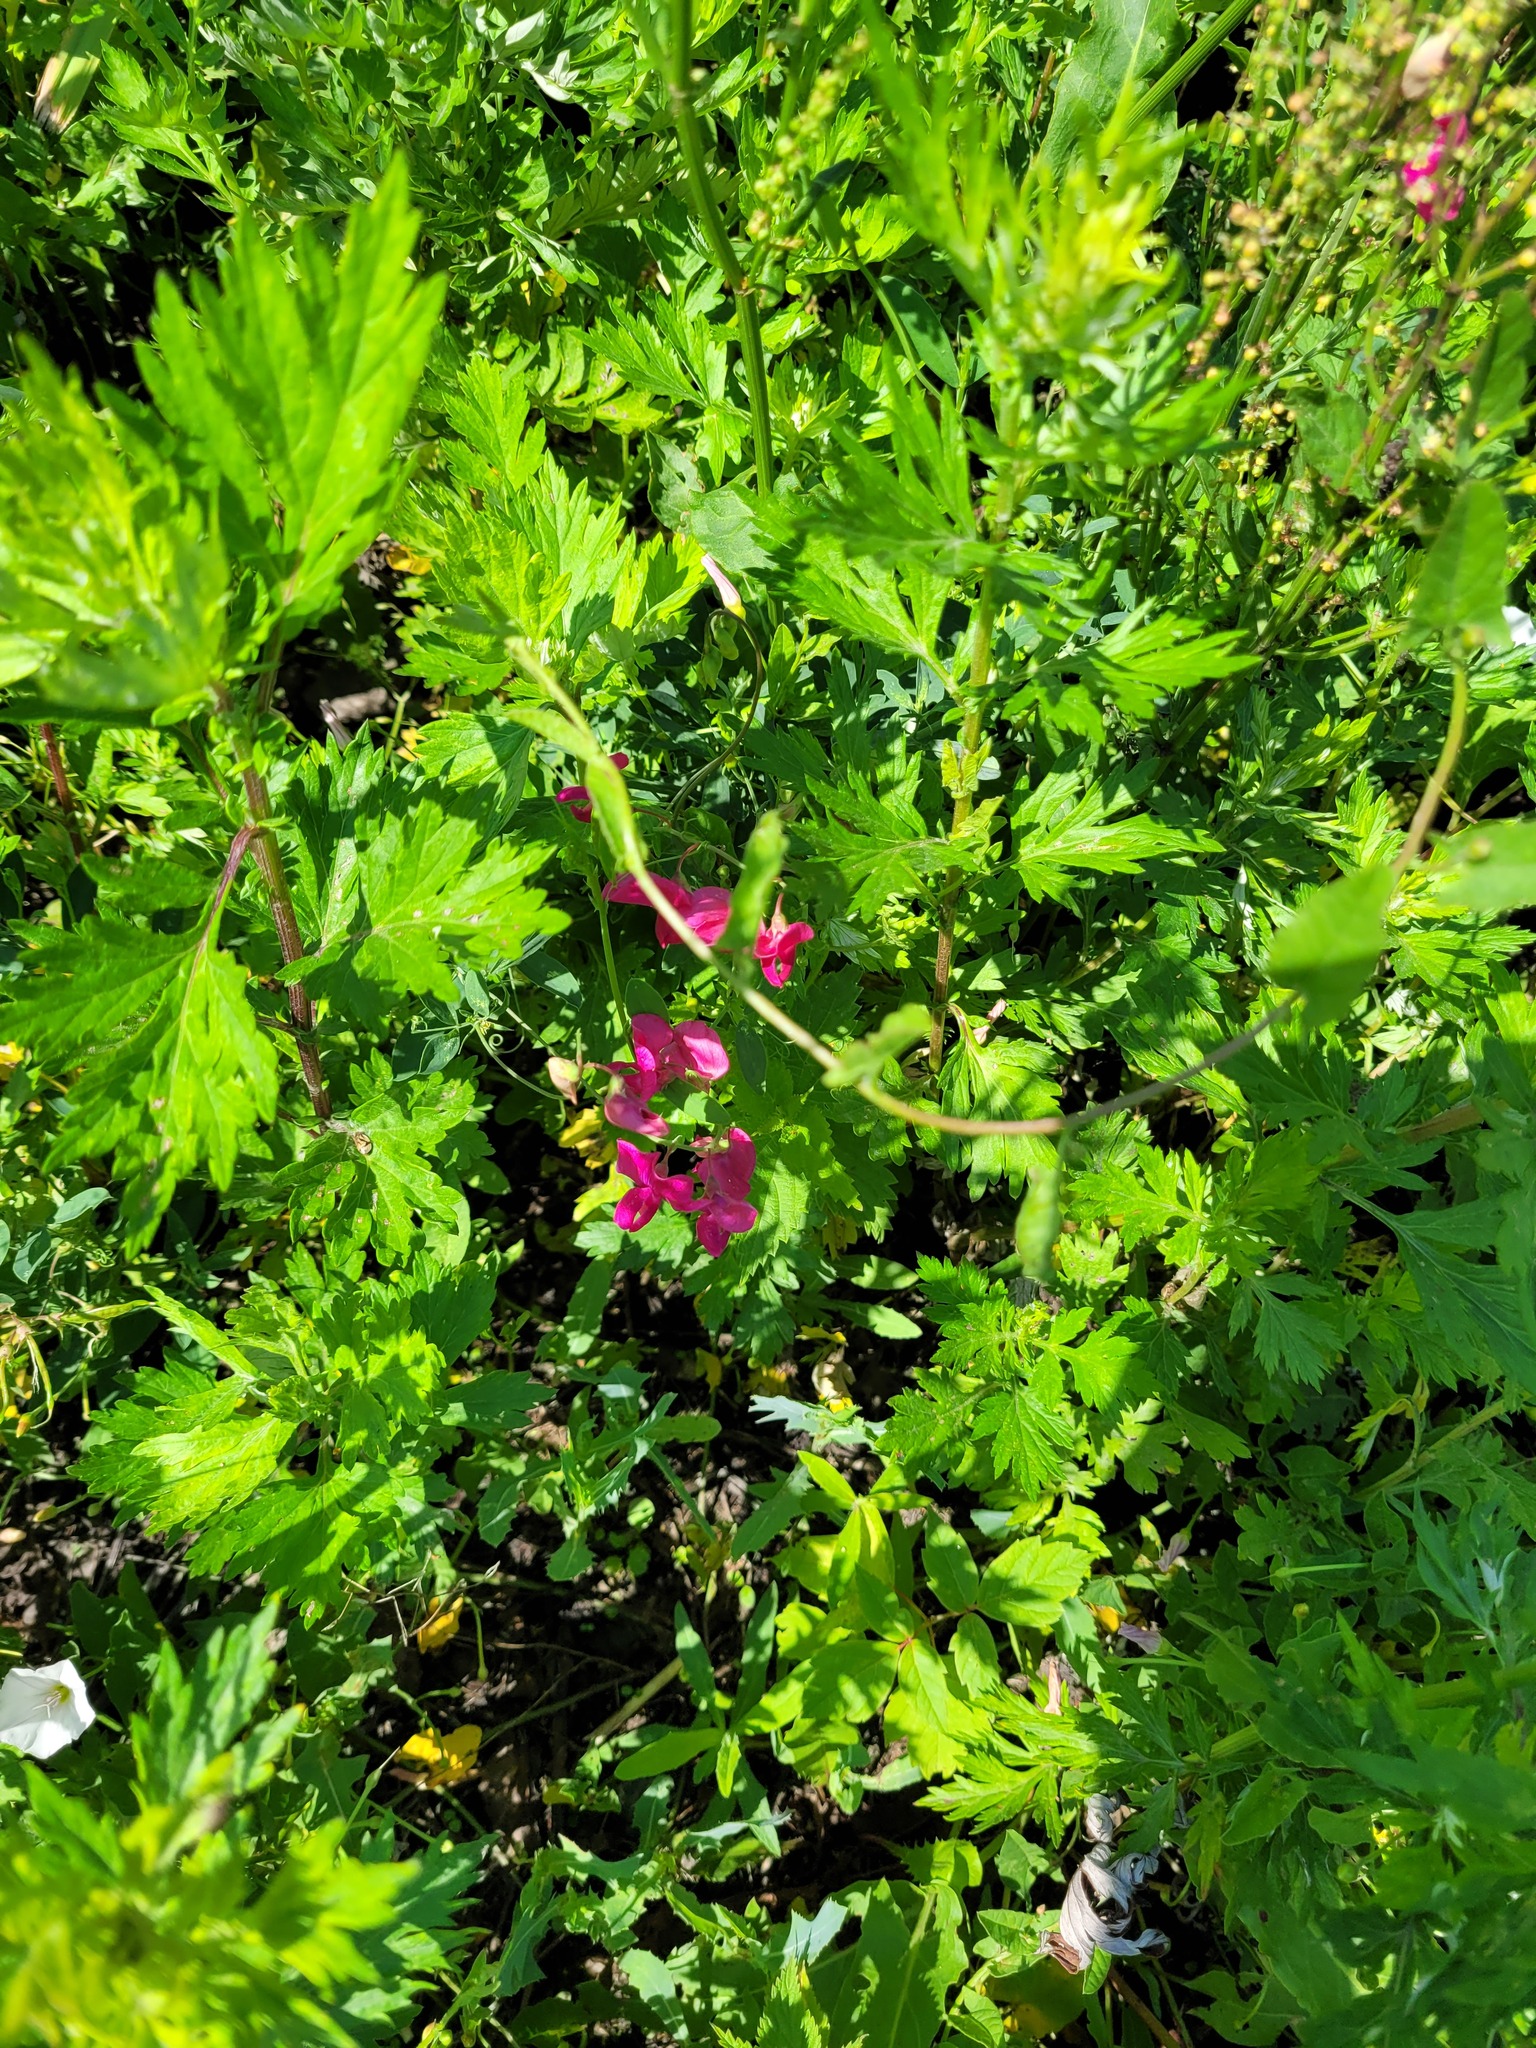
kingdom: Plantae
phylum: Tracheophyta
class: Magnoliopsida
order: Fabales
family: Fabaceae
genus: Lathyrus
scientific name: Lathyrus tuberosus
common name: Tuberous pea
